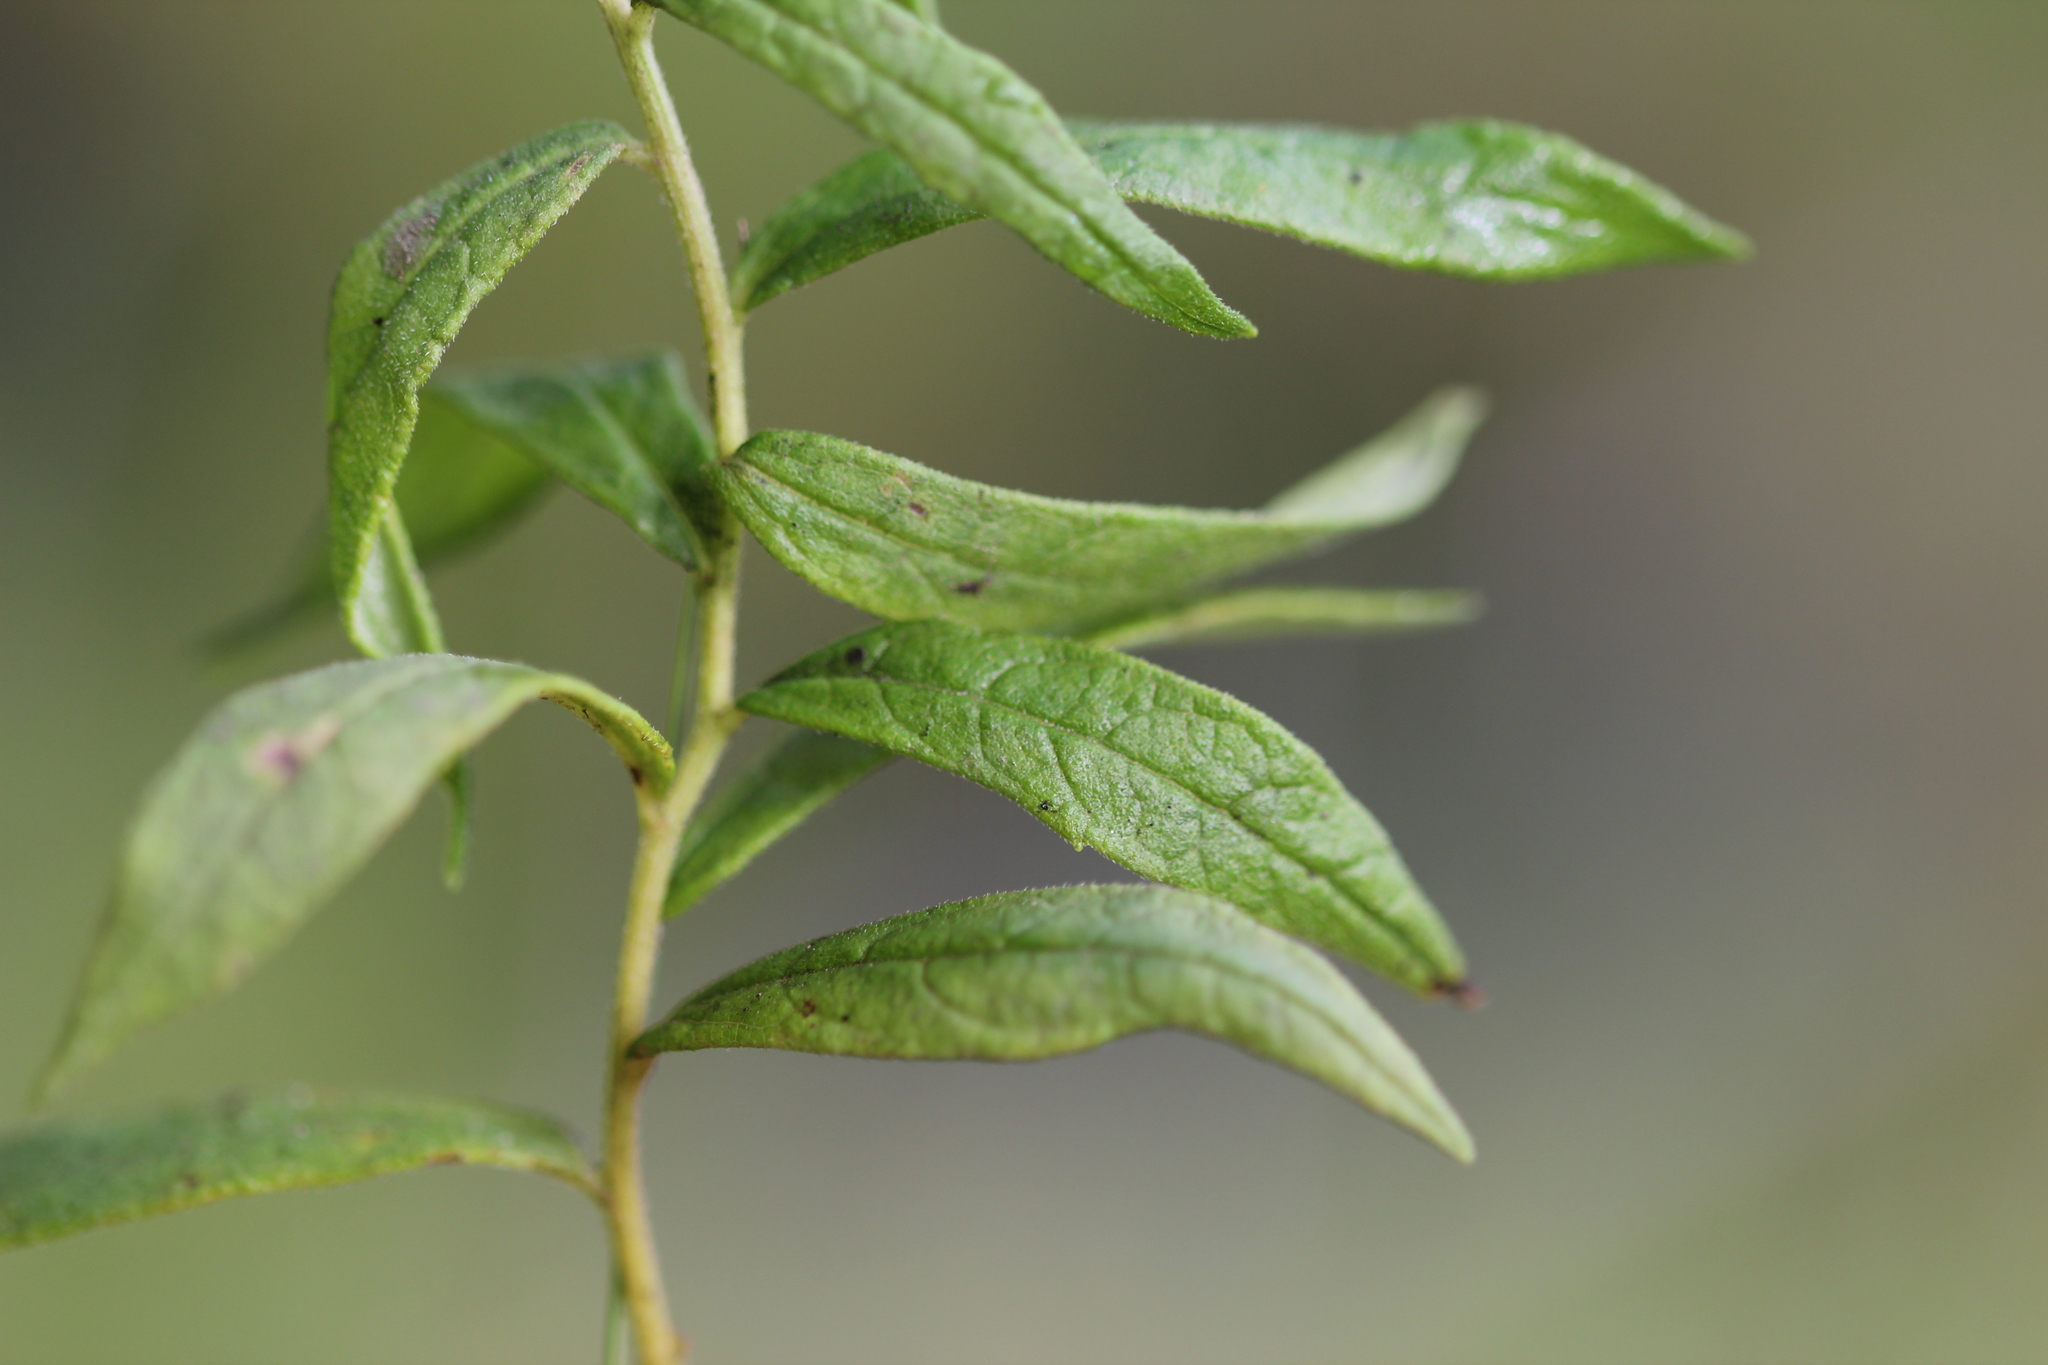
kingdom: Plantae
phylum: Tracheophyta
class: Magnoliopsida
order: Asterales
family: Asteraceae
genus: Oclemena
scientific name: Oclemena nemoralis
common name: Bog aster
